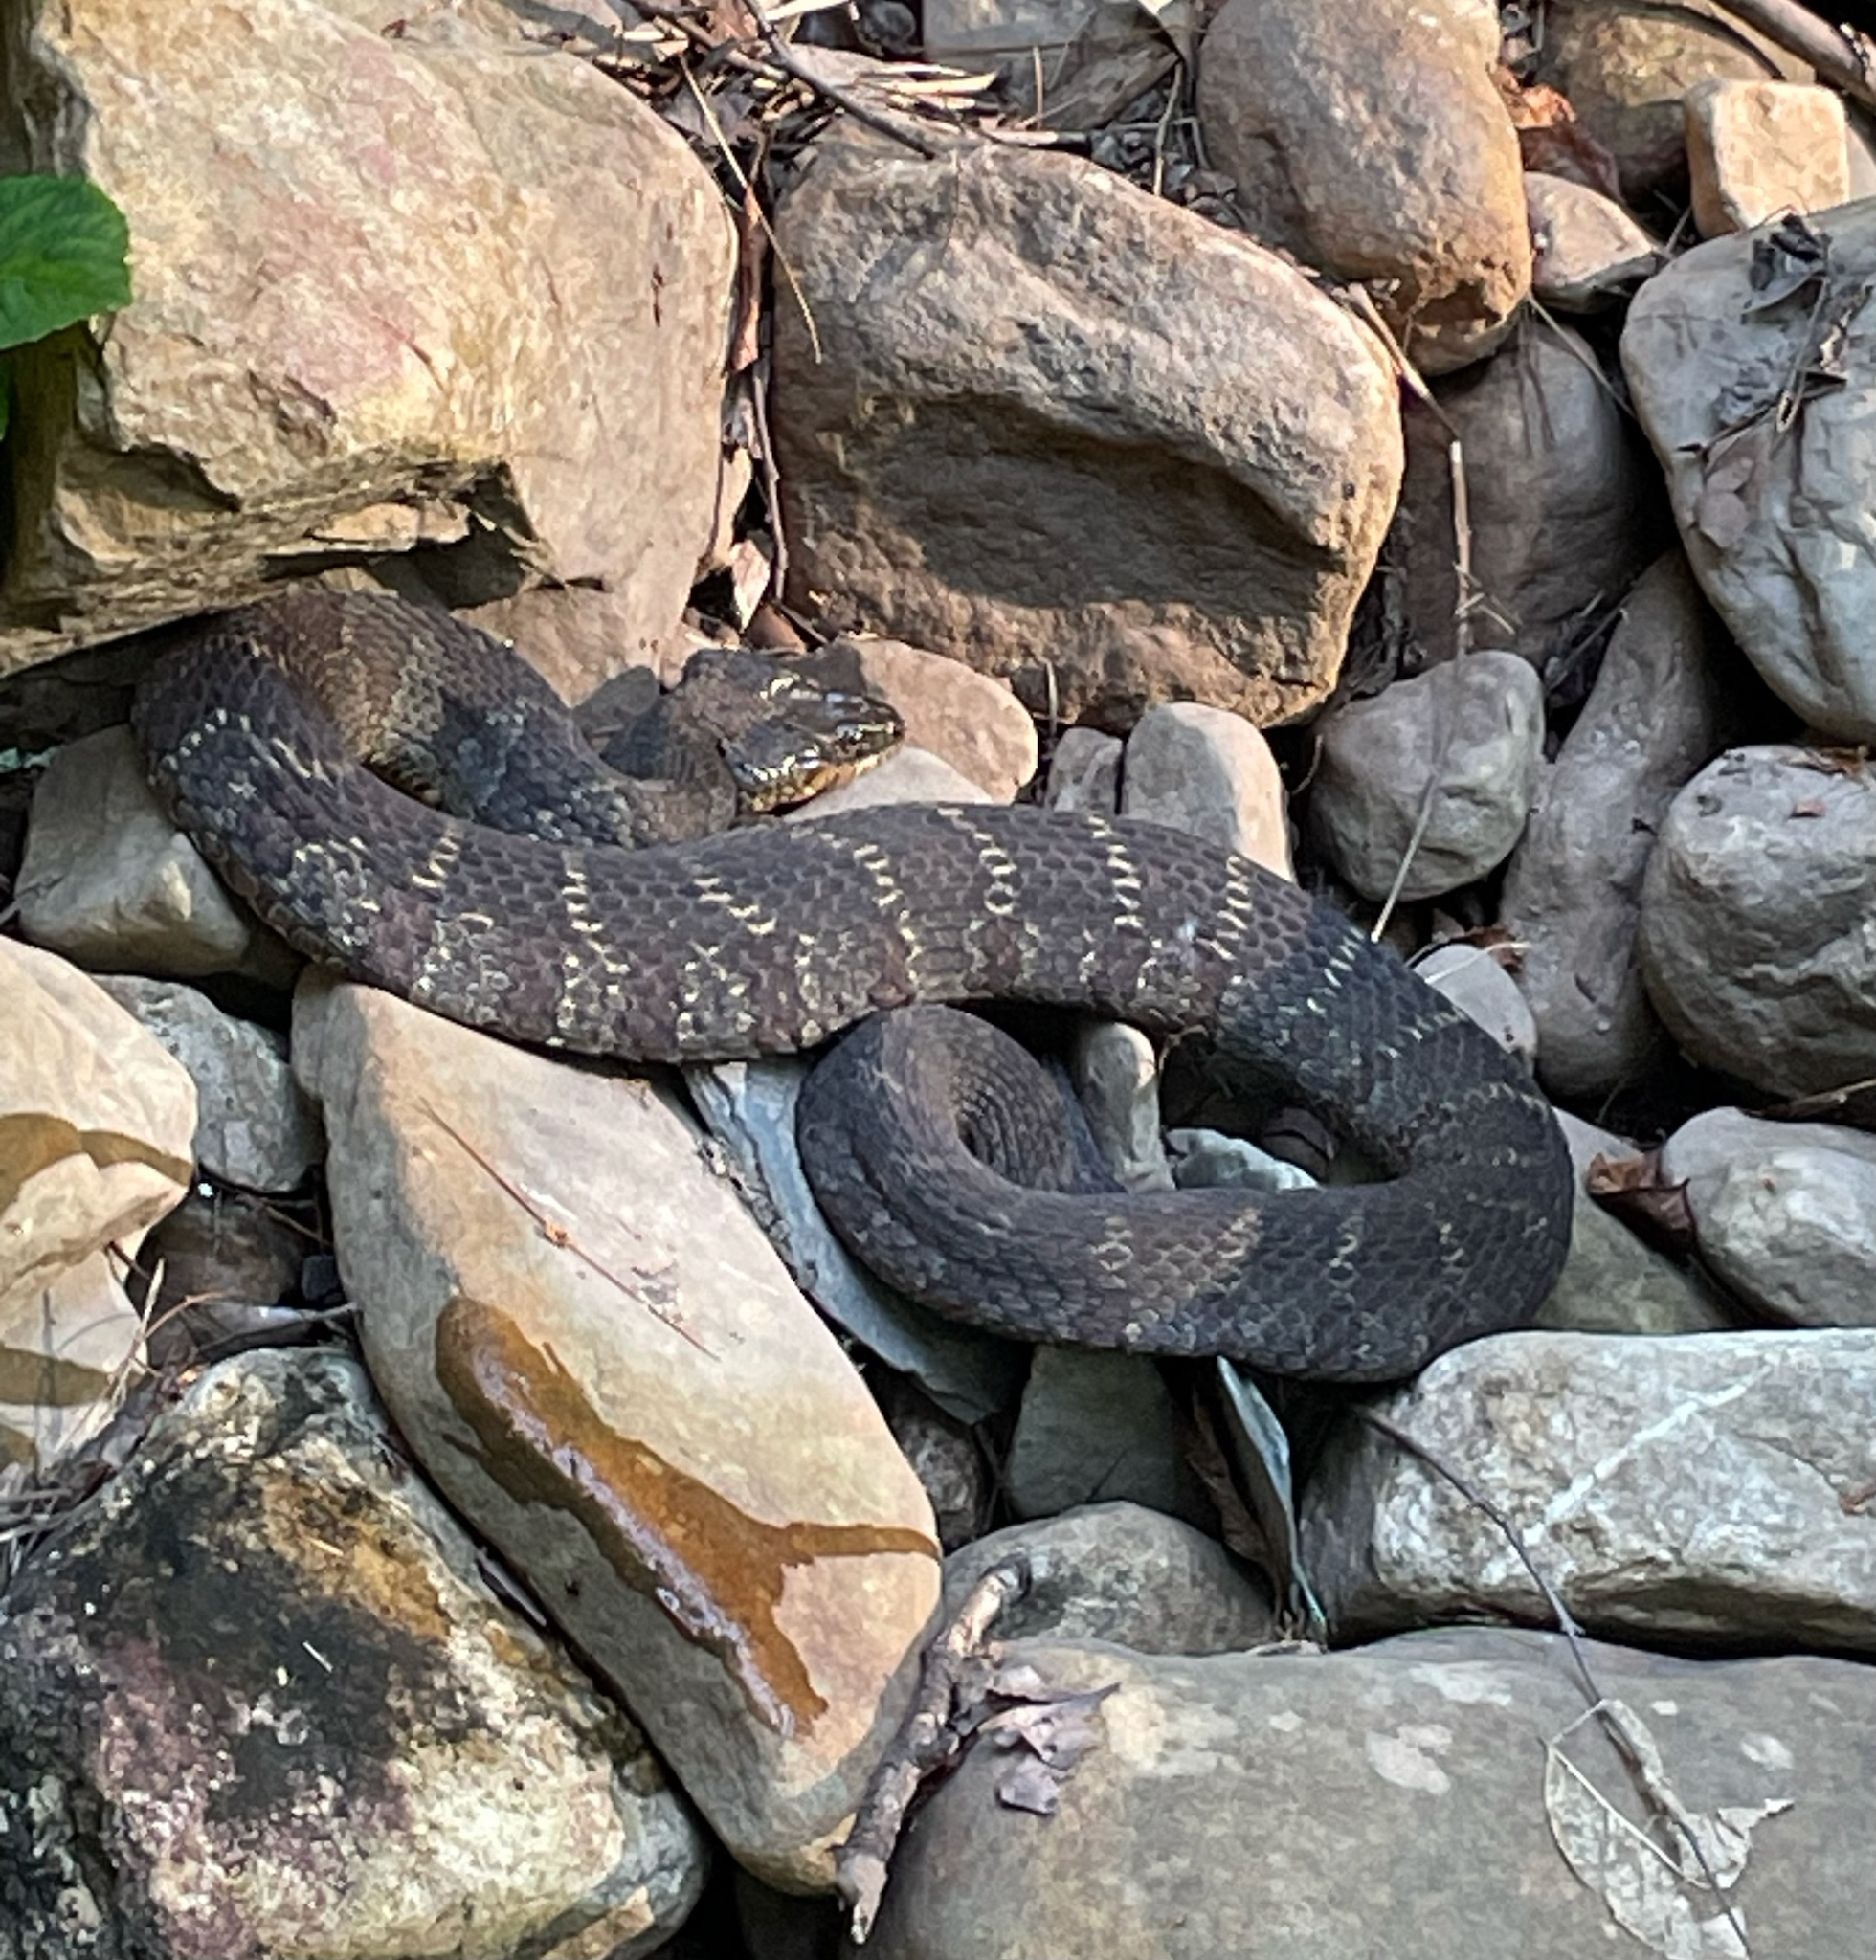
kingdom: Animalia
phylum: Chordata
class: Squamata
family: Colubridae
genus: Nerodia
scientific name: Nerodia sipedon
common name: Northern water snake
